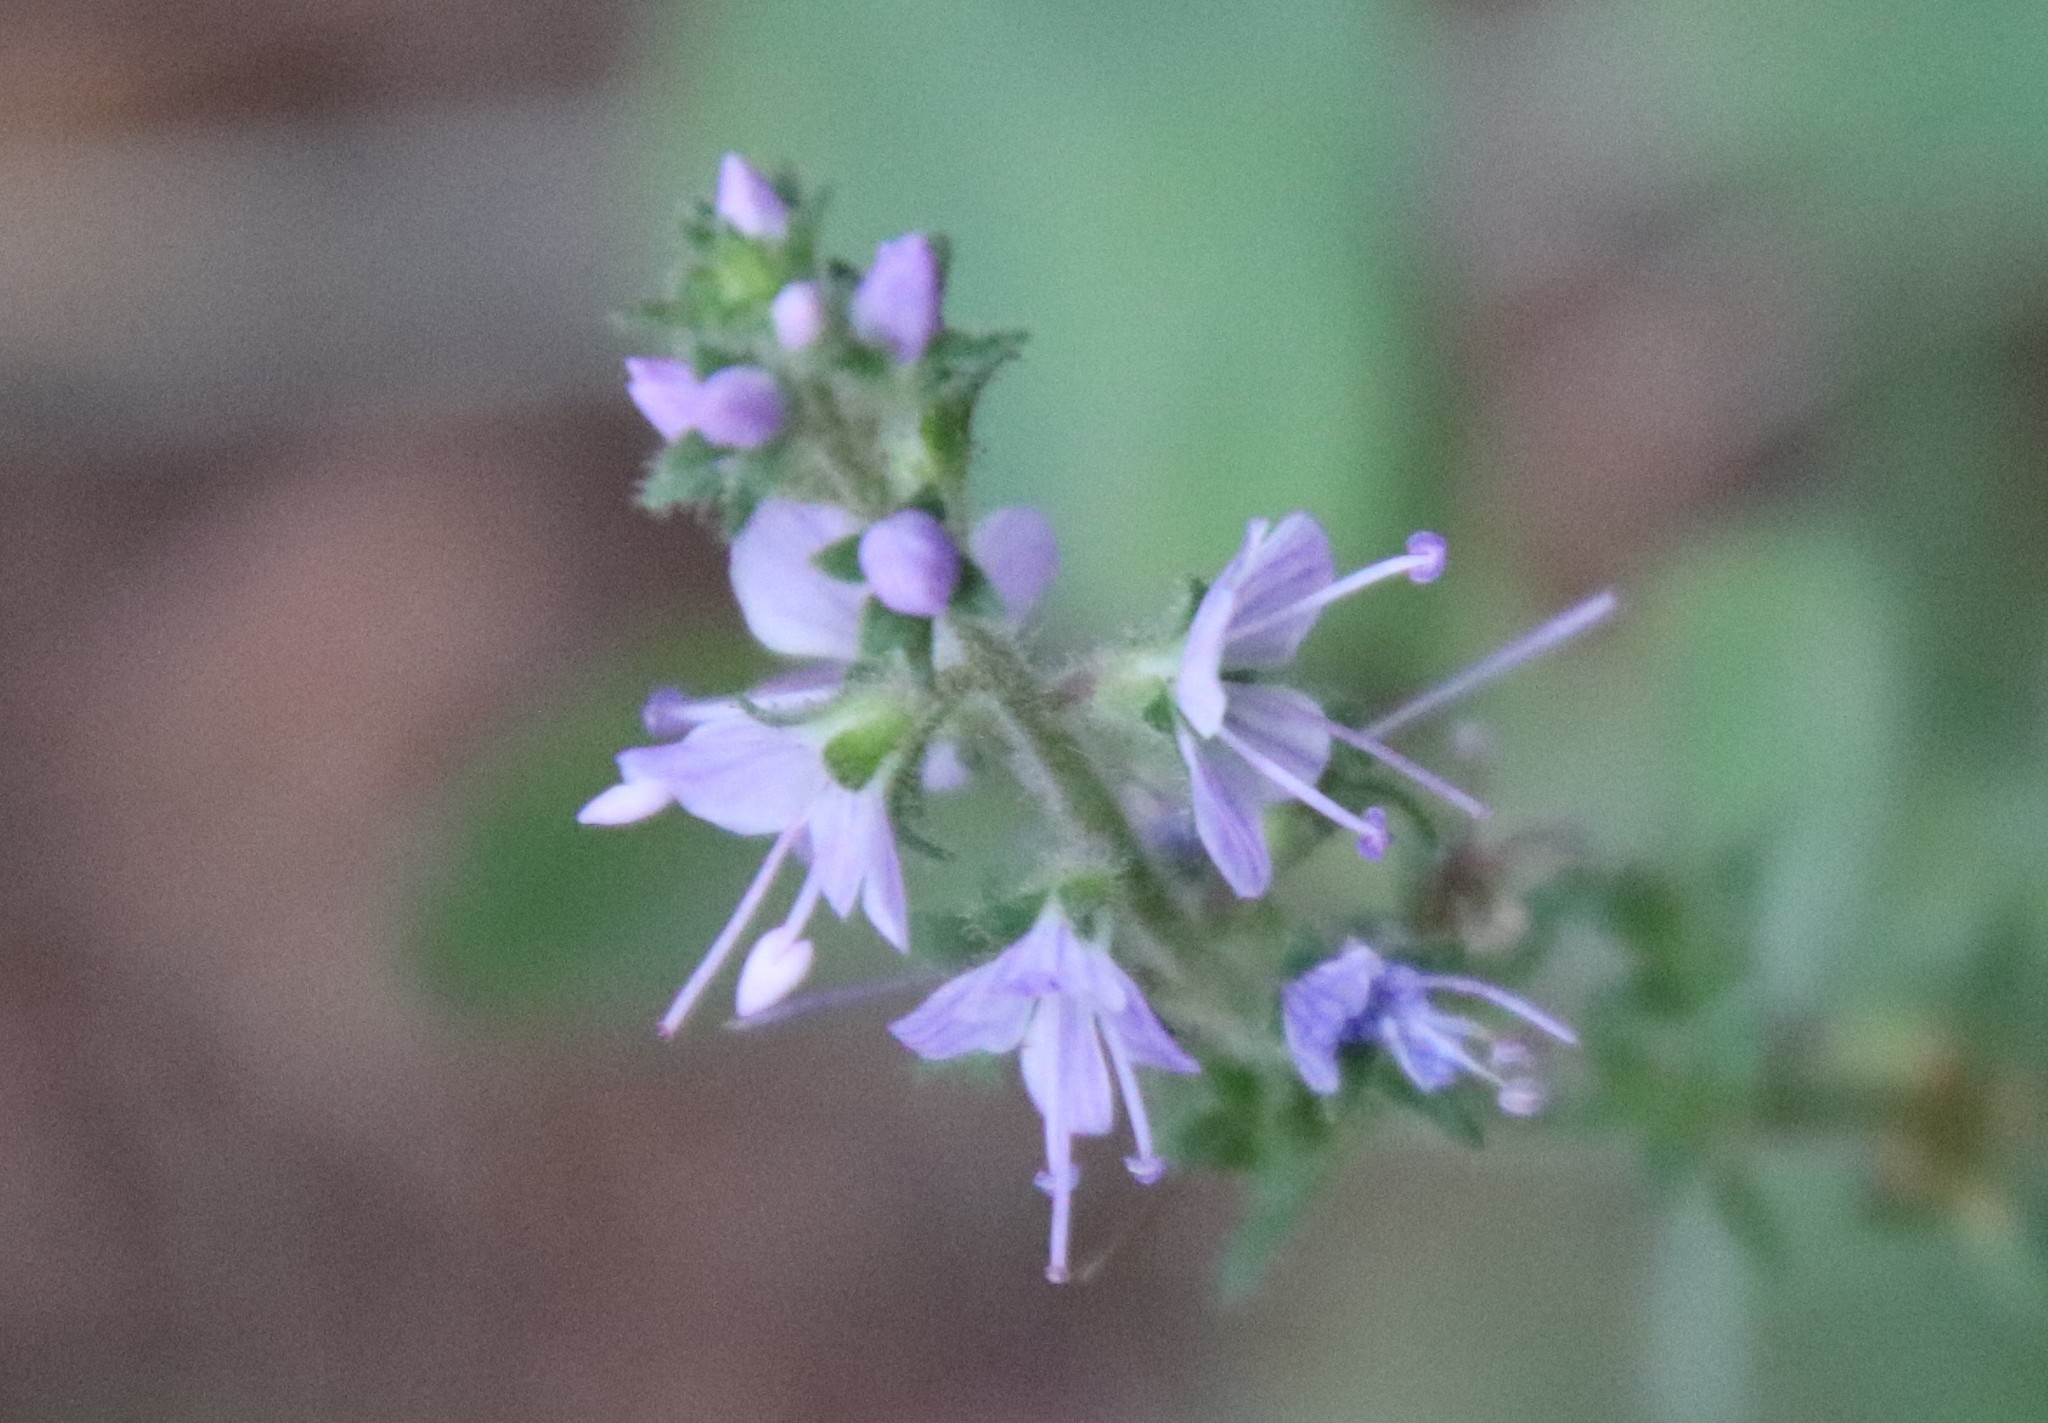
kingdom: Plantae
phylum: Tracheophyta
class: Magnoliopsida
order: Lamiales
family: Plantaginaceae
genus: Veronica
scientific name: Veronica officinalis
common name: Common speedwell
